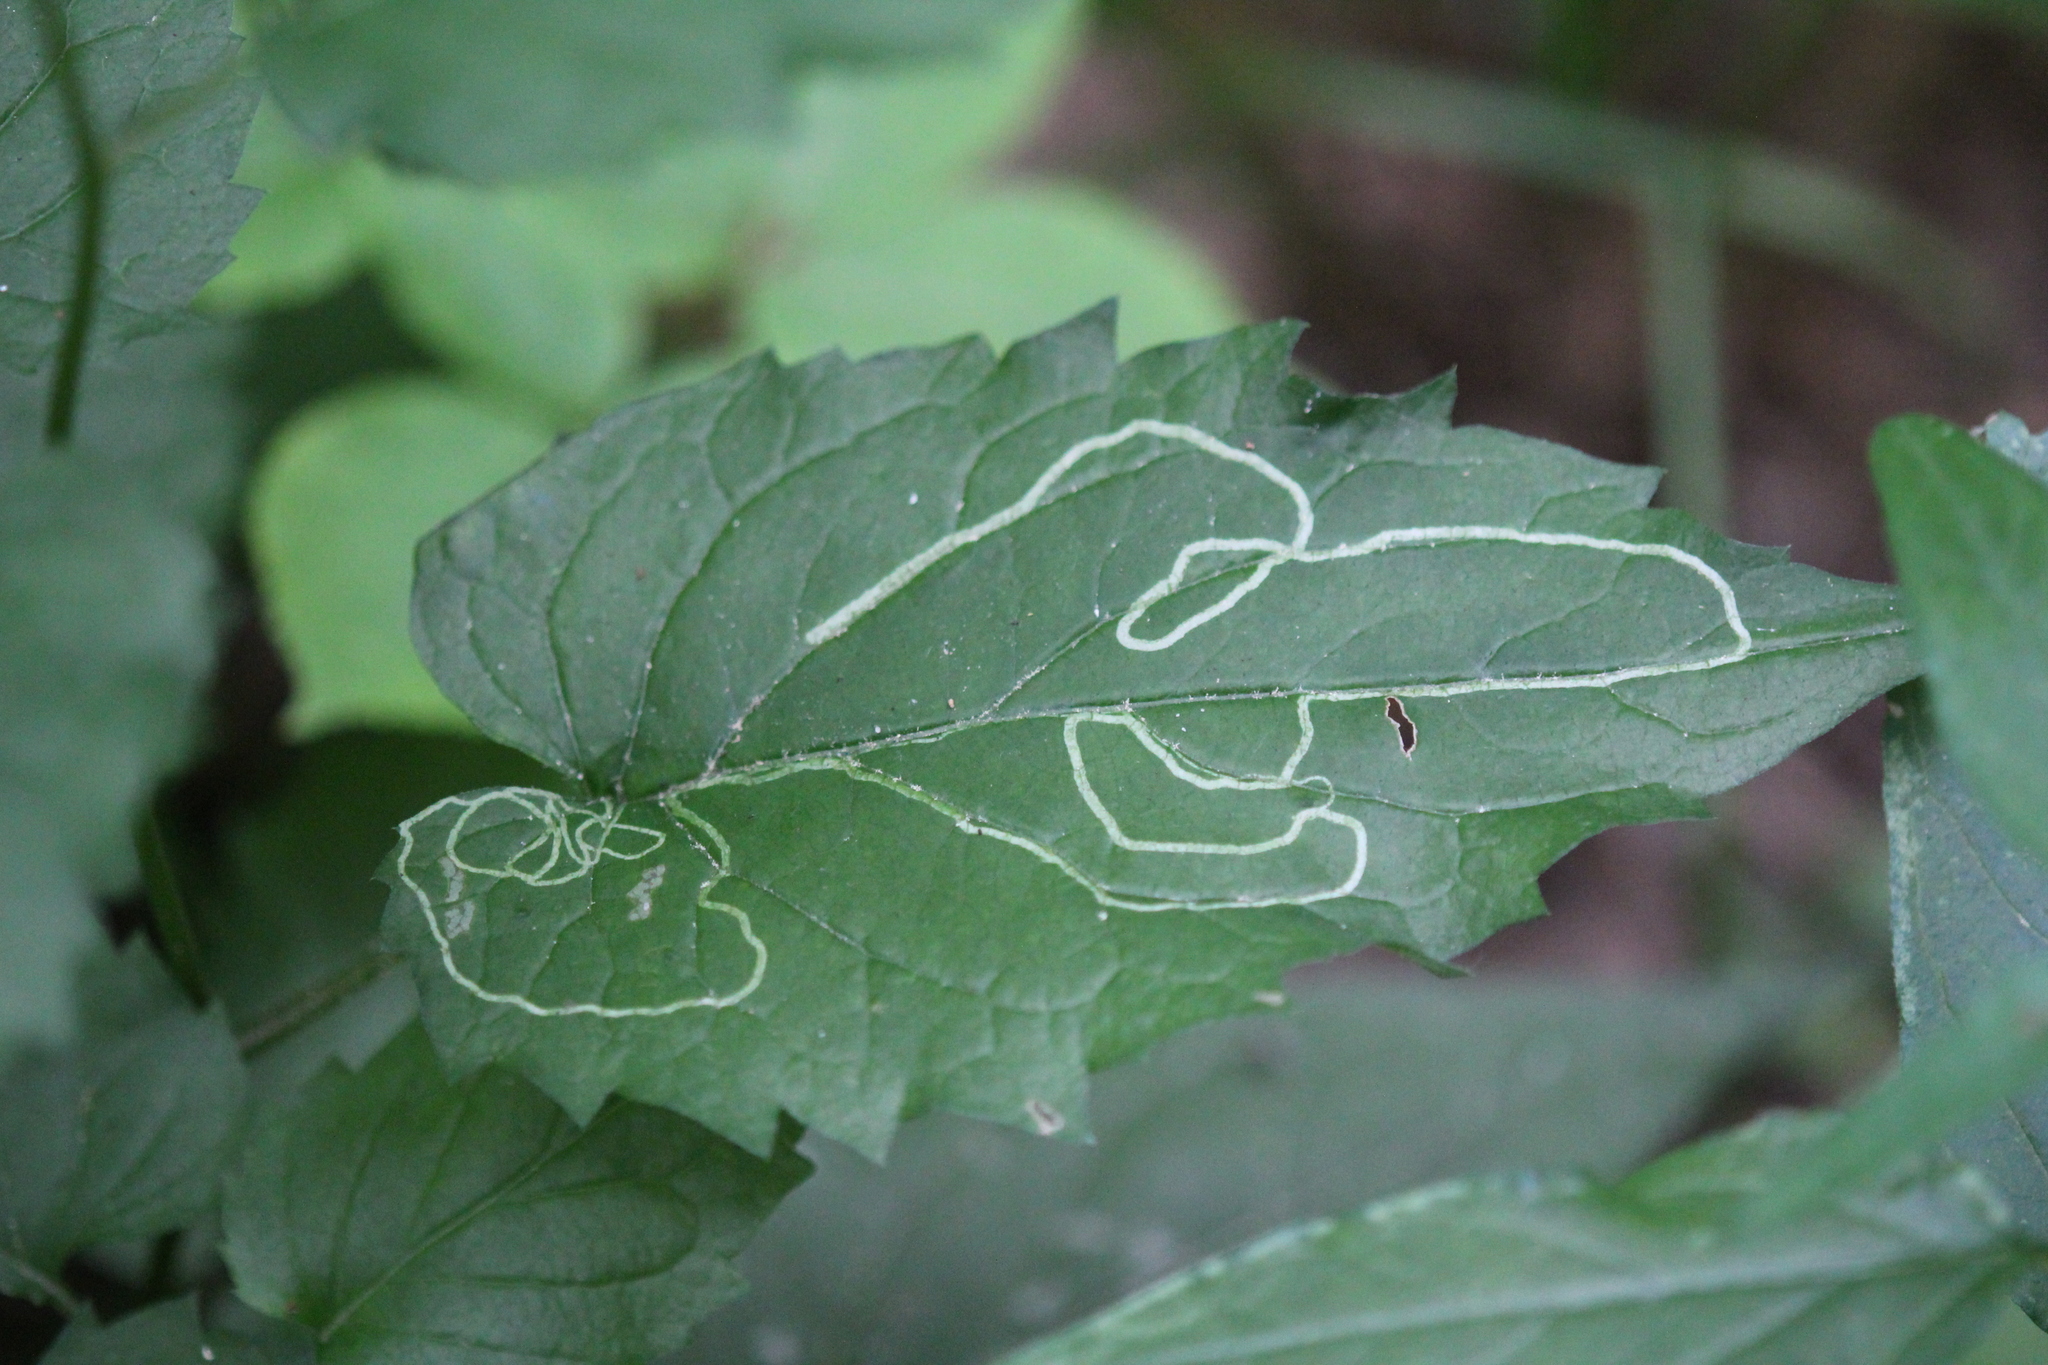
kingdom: Animalia
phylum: Arthropoda
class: Insecta
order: Diptera
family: Agromyzidae
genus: Ophiomyia
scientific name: Ophiomyia maura
